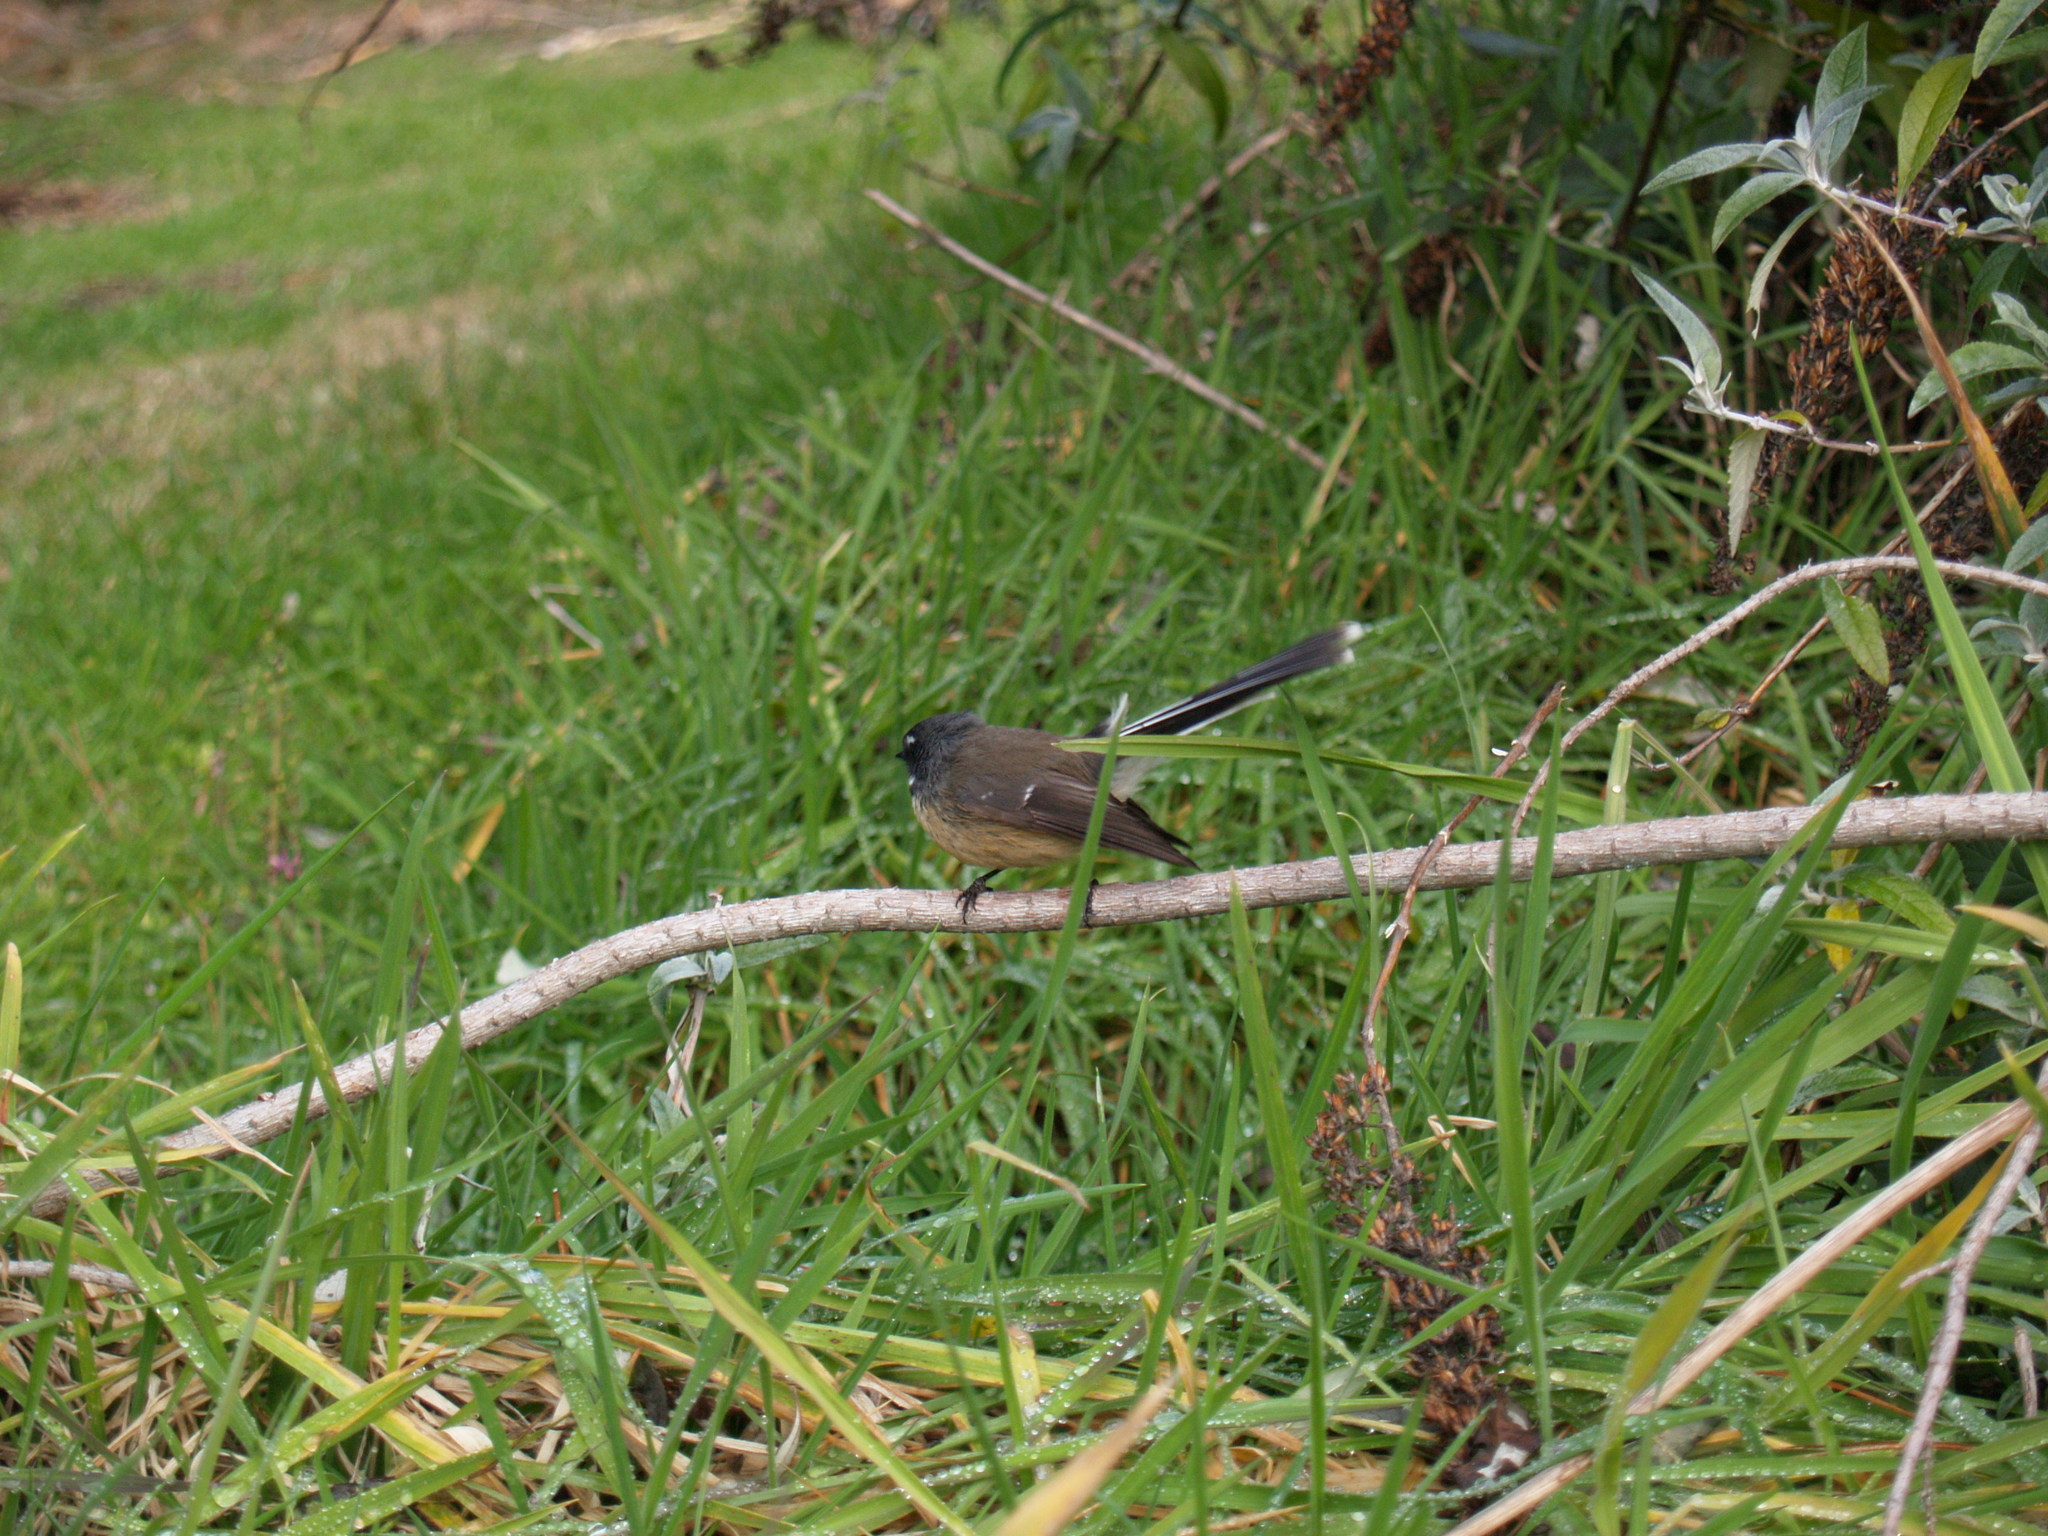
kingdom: Animalia
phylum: Chordata
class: Aves
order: Passeriformes
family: Rhipiduridae
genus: Rhipidura
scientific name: Rhipidura fuliginosa
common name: New zealand fantail
